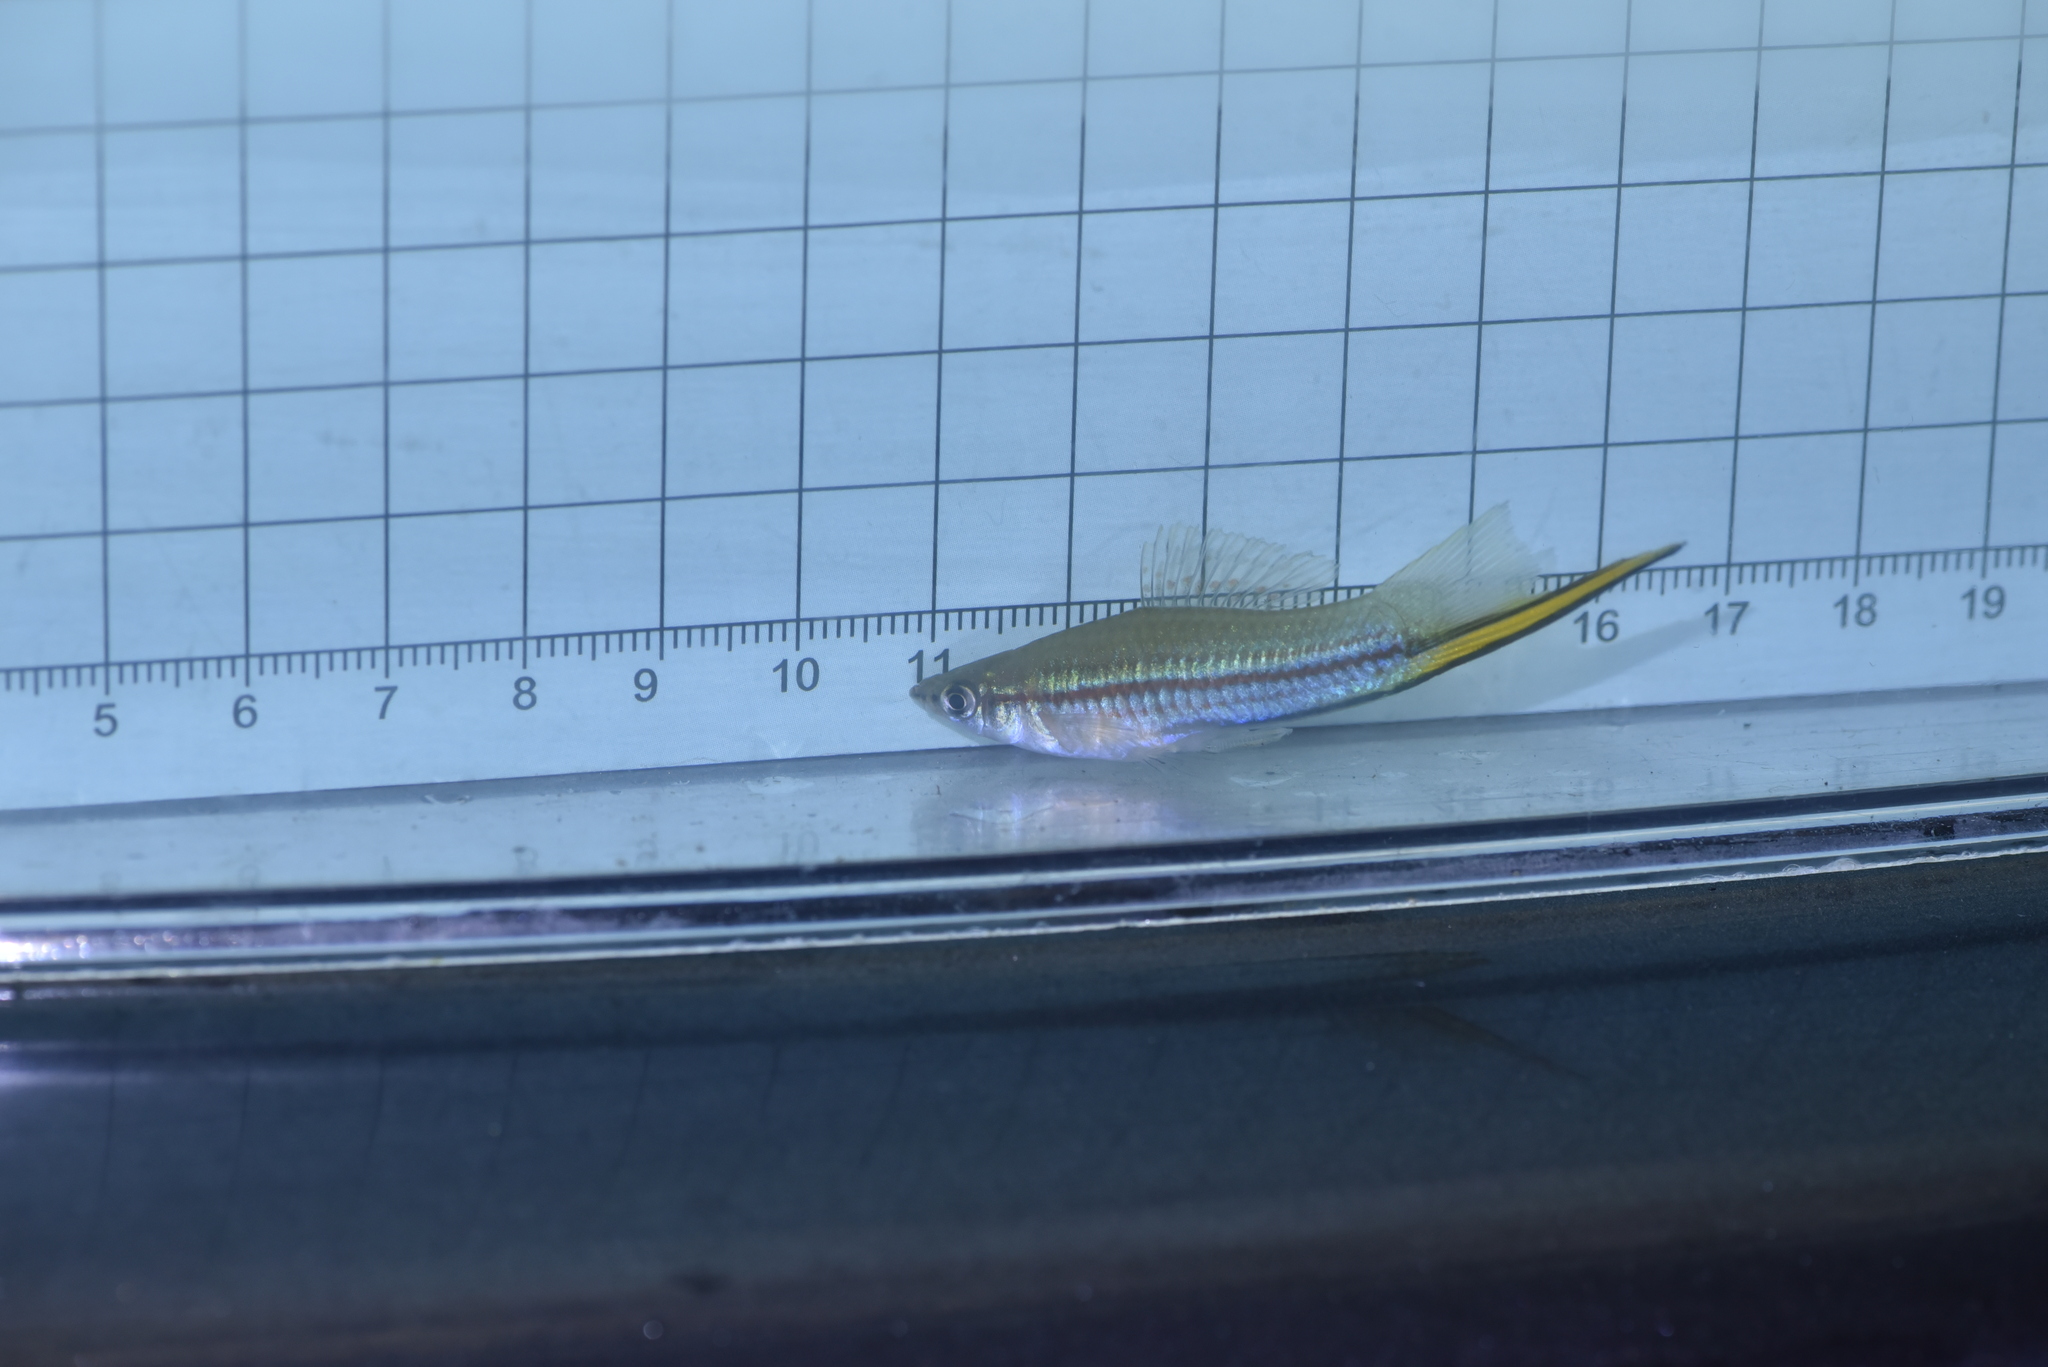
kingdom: Animalia
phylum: Chordata
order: Cyprinodontiformes
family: Poeciliidae
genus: Xiphophorus
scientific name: Xiphophorus hellerii
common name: Green swordtail
